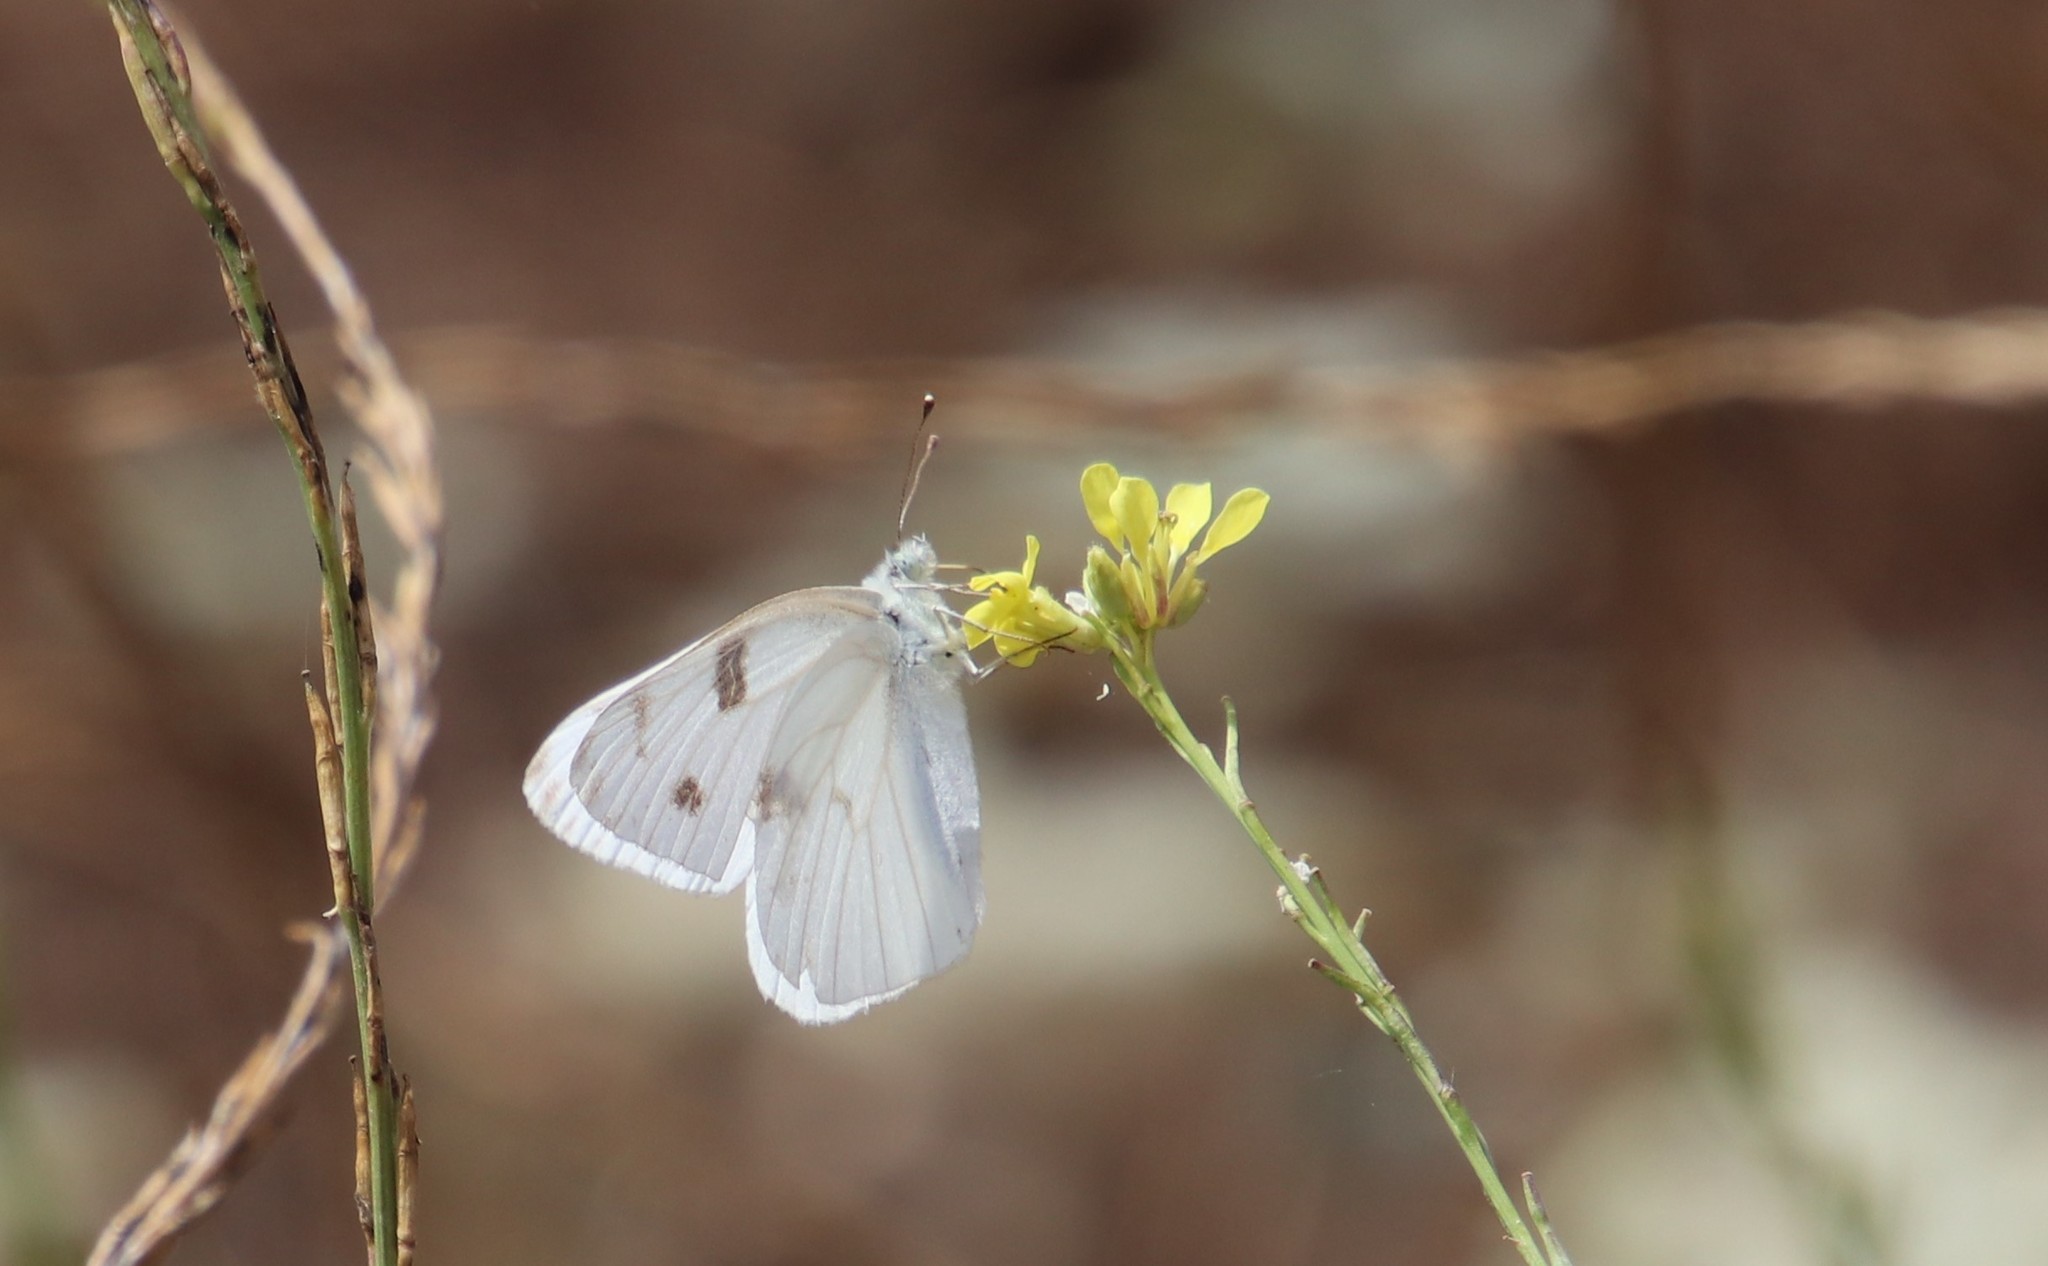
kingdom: Animalia
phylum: Arthropoda
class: Insecta
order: Lepidoptera
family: Pieridae
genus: Pontia
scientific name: Pontia protodice
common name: Checkered white
